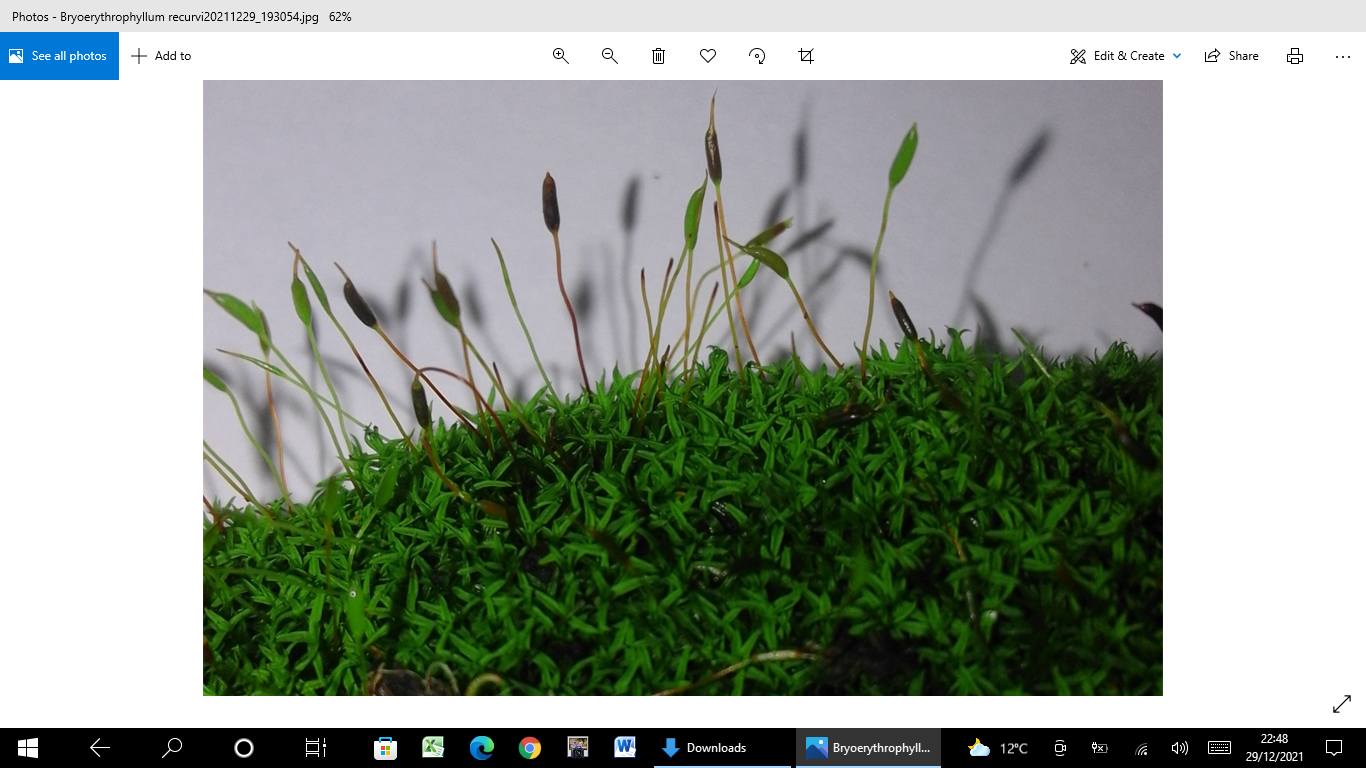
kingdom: Plantae
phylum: Bryophyta
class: Bryopsida
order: Pottiales
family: Pottiaceae
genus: Bryoerythrophyllum
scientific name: Bryoerythrophyllum recurvirostrum
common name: Red beard moss
